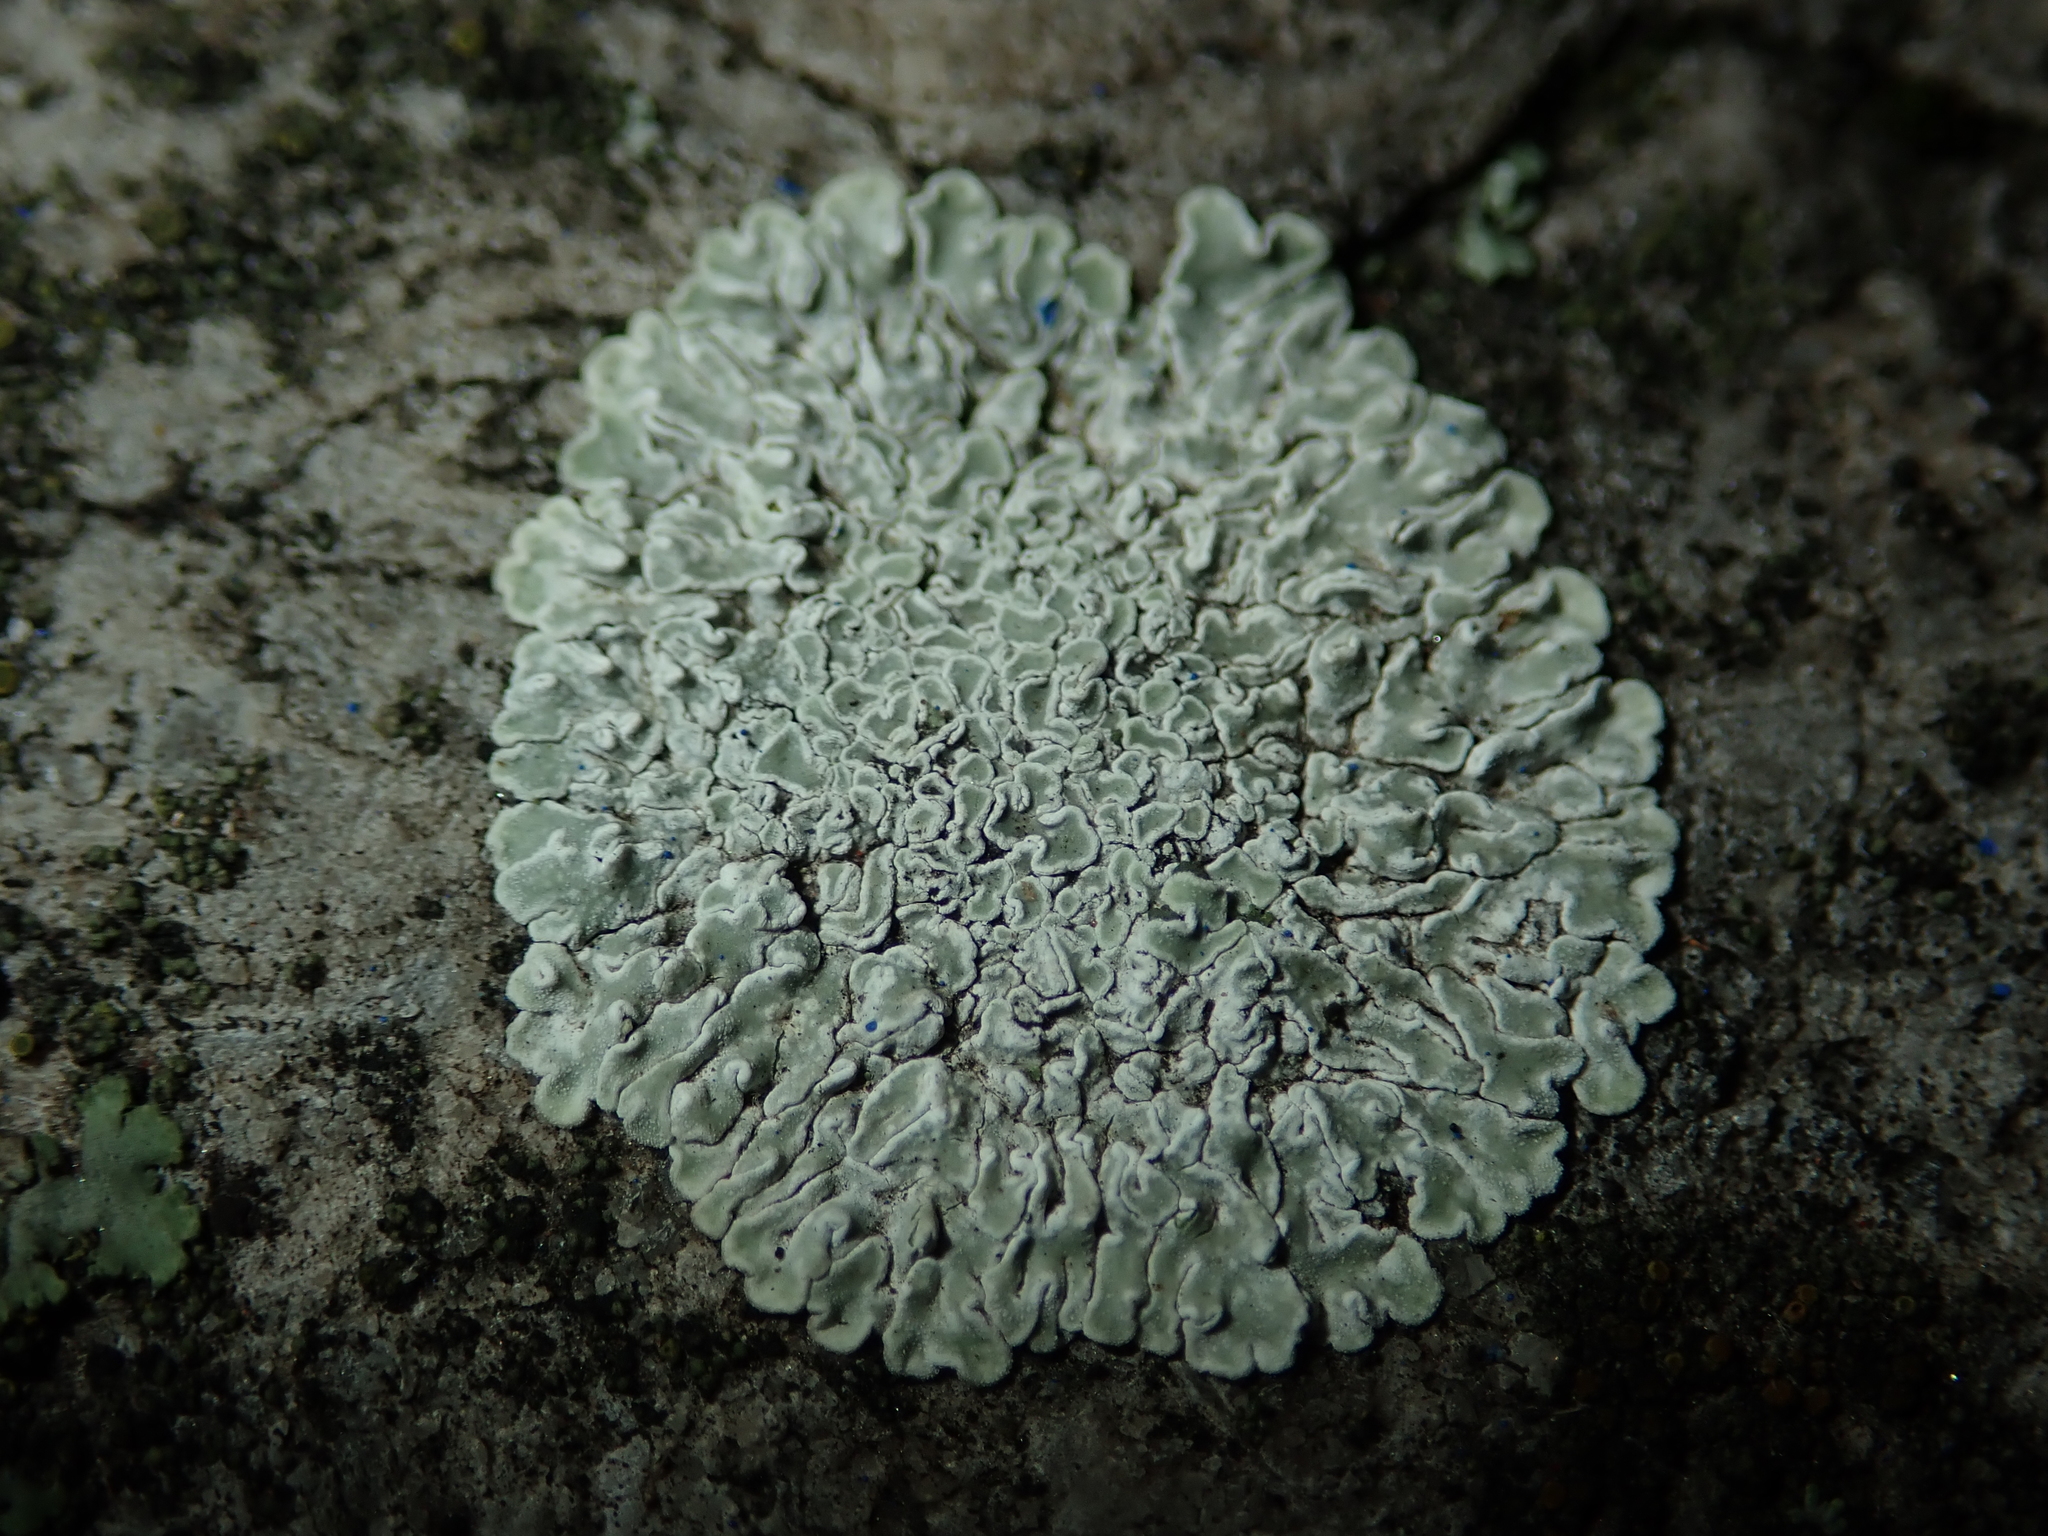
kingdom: Fungi
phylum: Ascomycota
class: Lecanoromycetes
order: Lecanorales
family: Lecanoraceae
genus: Protoparmeliopsis
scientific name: Protoparmeliopsis muralis
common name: Stonewall rim lichen
